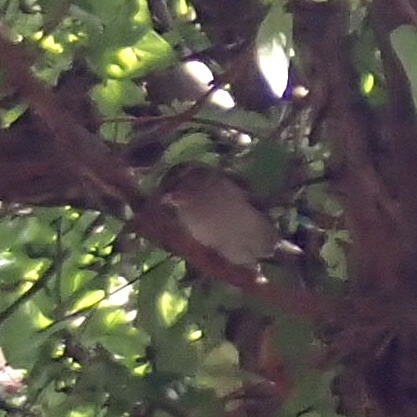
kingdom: Animalia
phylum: Chordata
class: Aves
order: Passeriformes
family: Passeridae
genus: Passer
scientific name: Passer domesticus
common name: House sparrow
